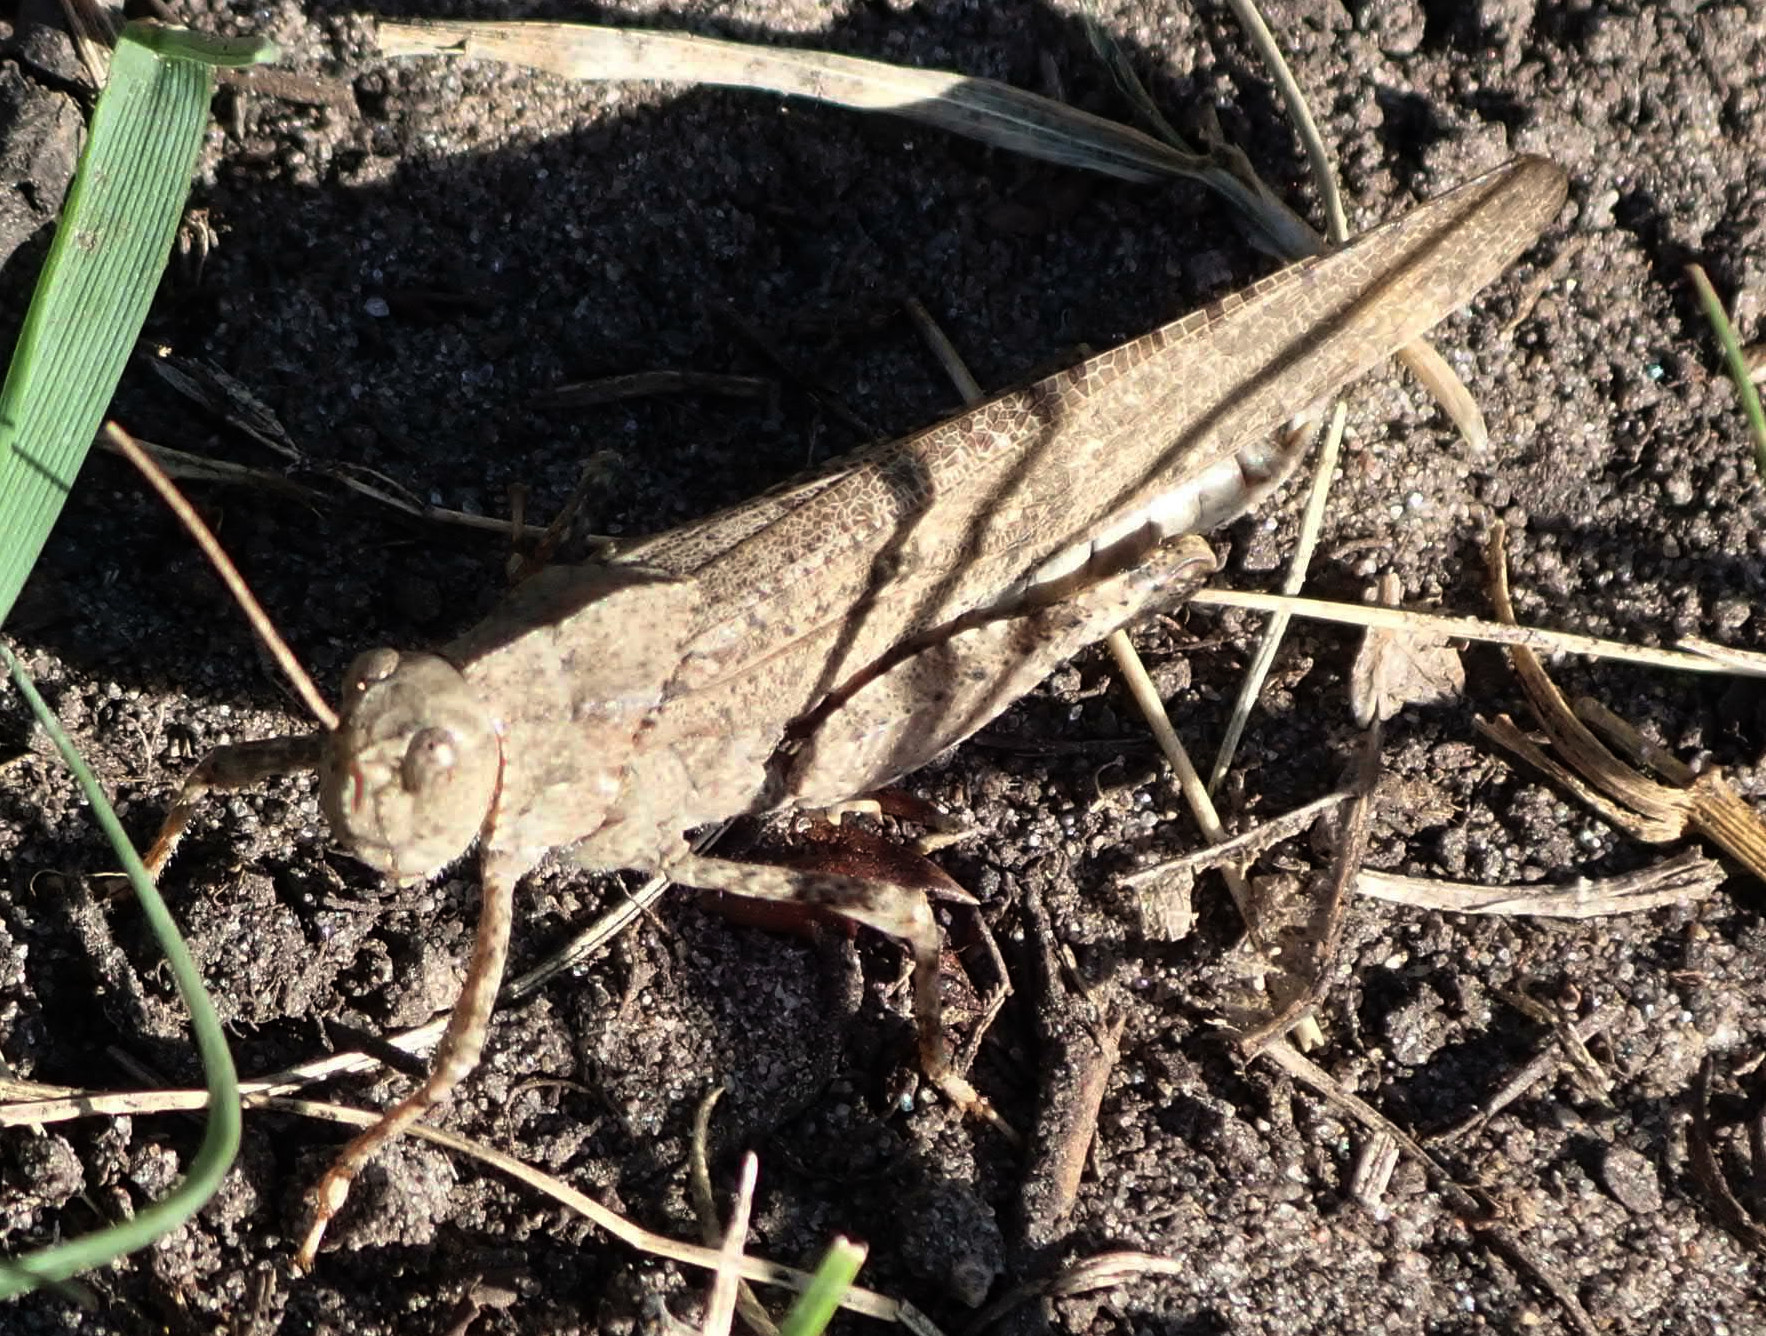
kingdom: Animalia
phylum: Arthropoda
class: Insecta
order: Orthoptera
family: Acrididae
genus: Dissosteira
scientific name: Dissosteira carolina
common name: Carolina grasshopper
